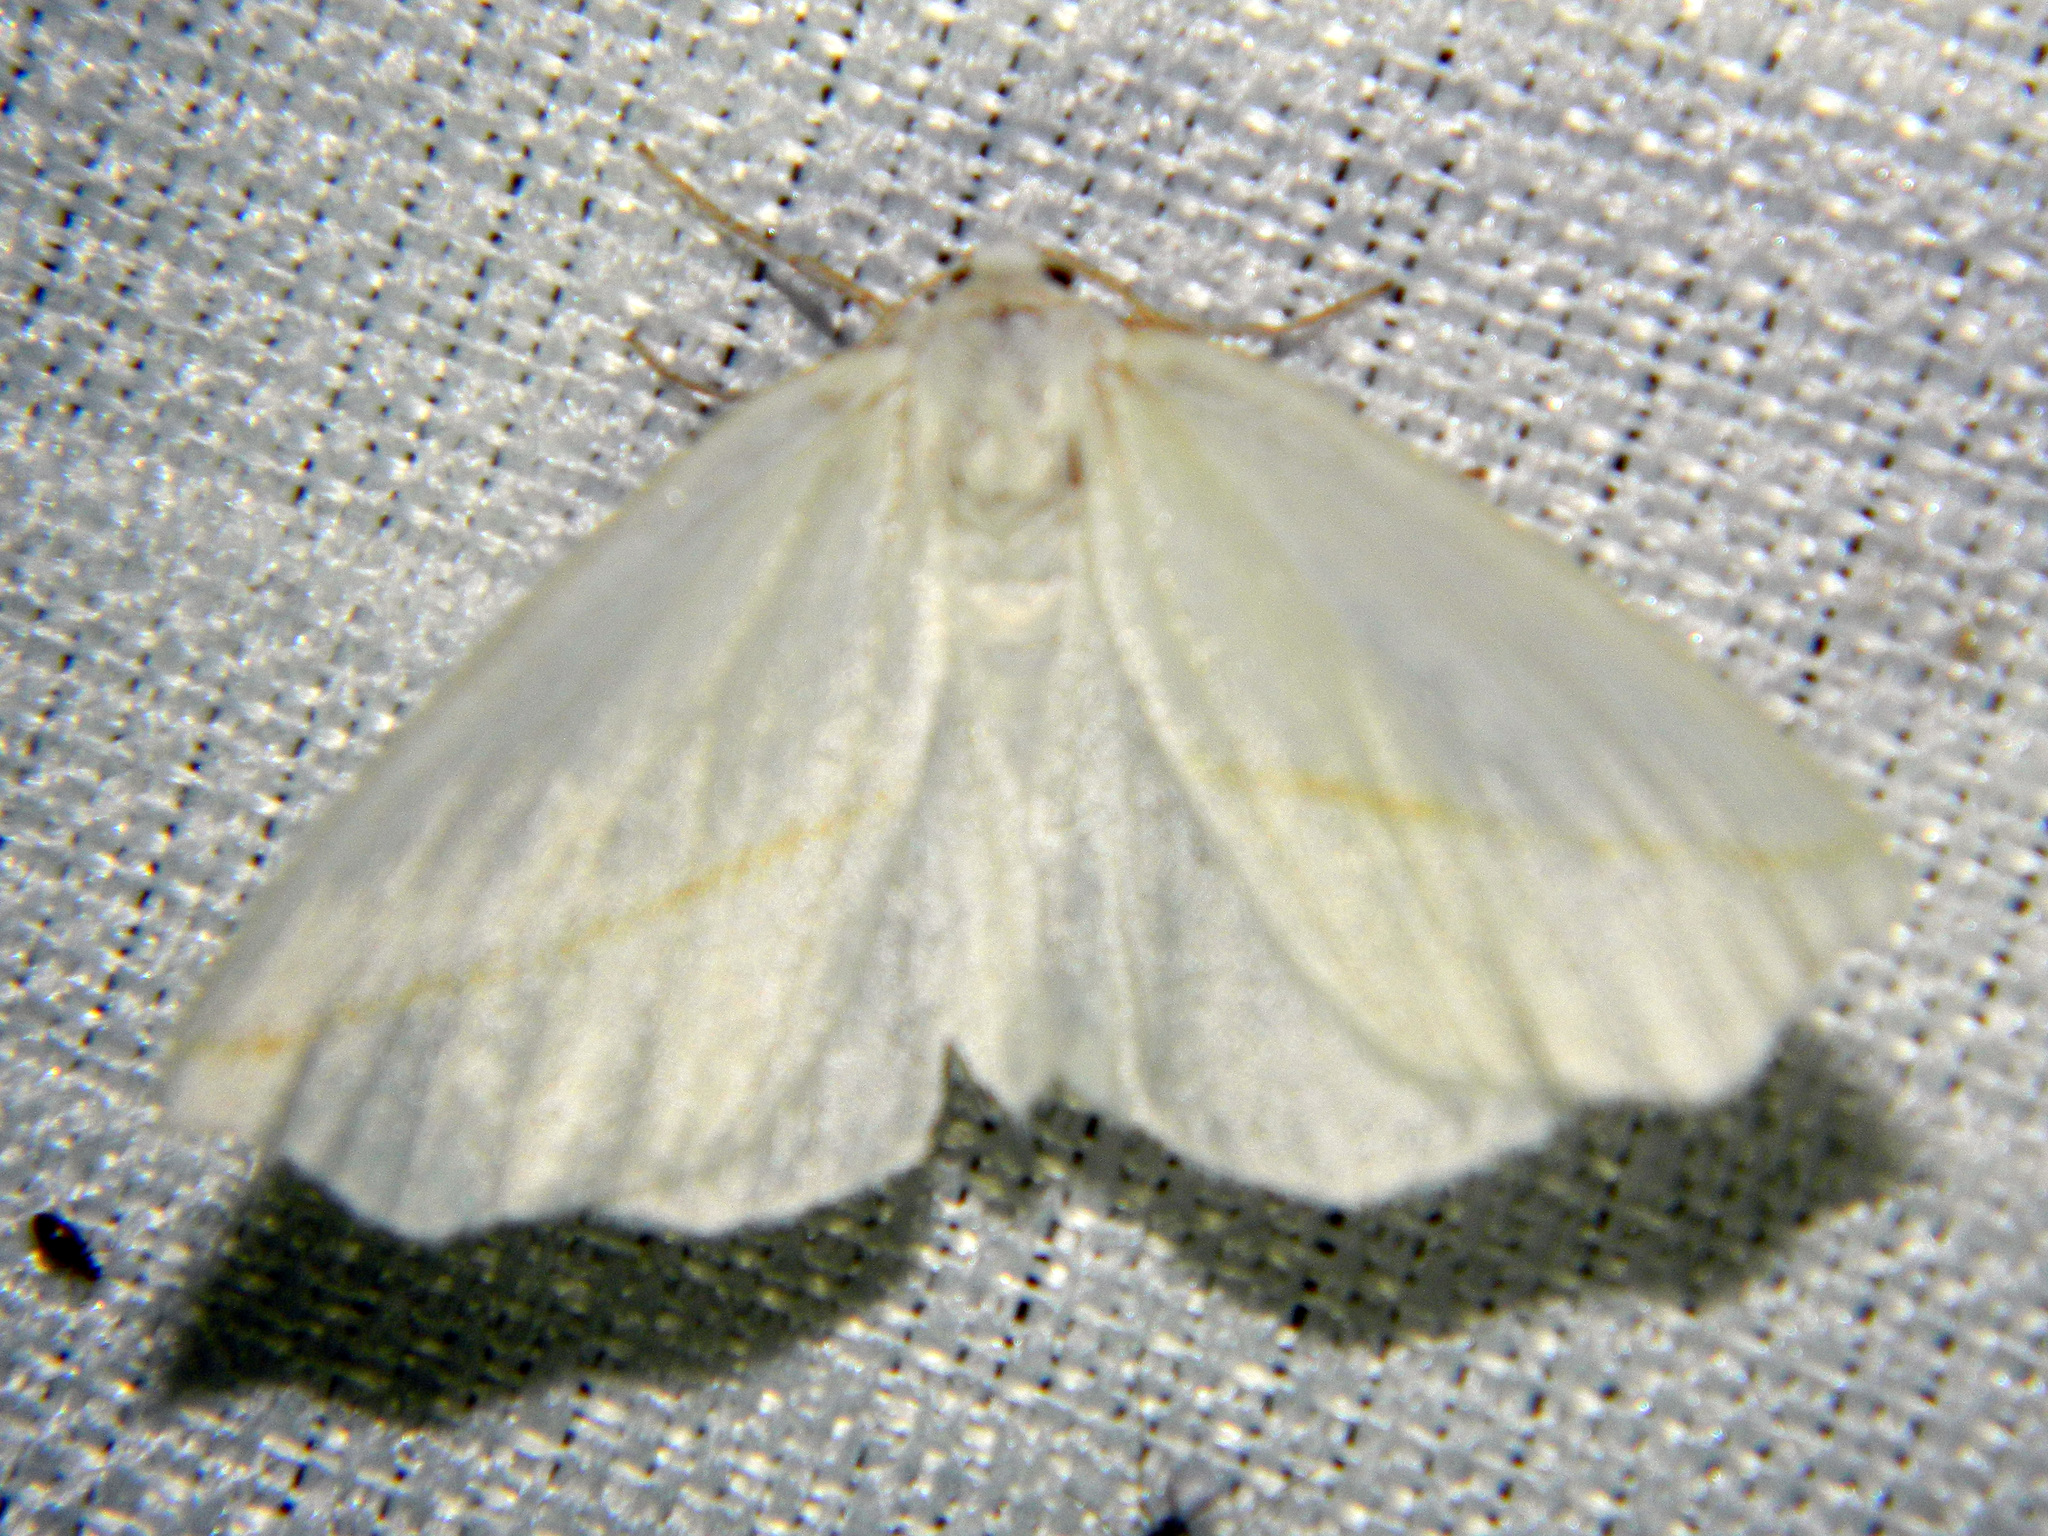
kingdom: Animalia
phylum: Arthropoda
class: Insecta
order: Lepidoptera
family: Geometridae
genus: Tetracis
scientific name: Tetracis cachexiata
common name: White slant-line
